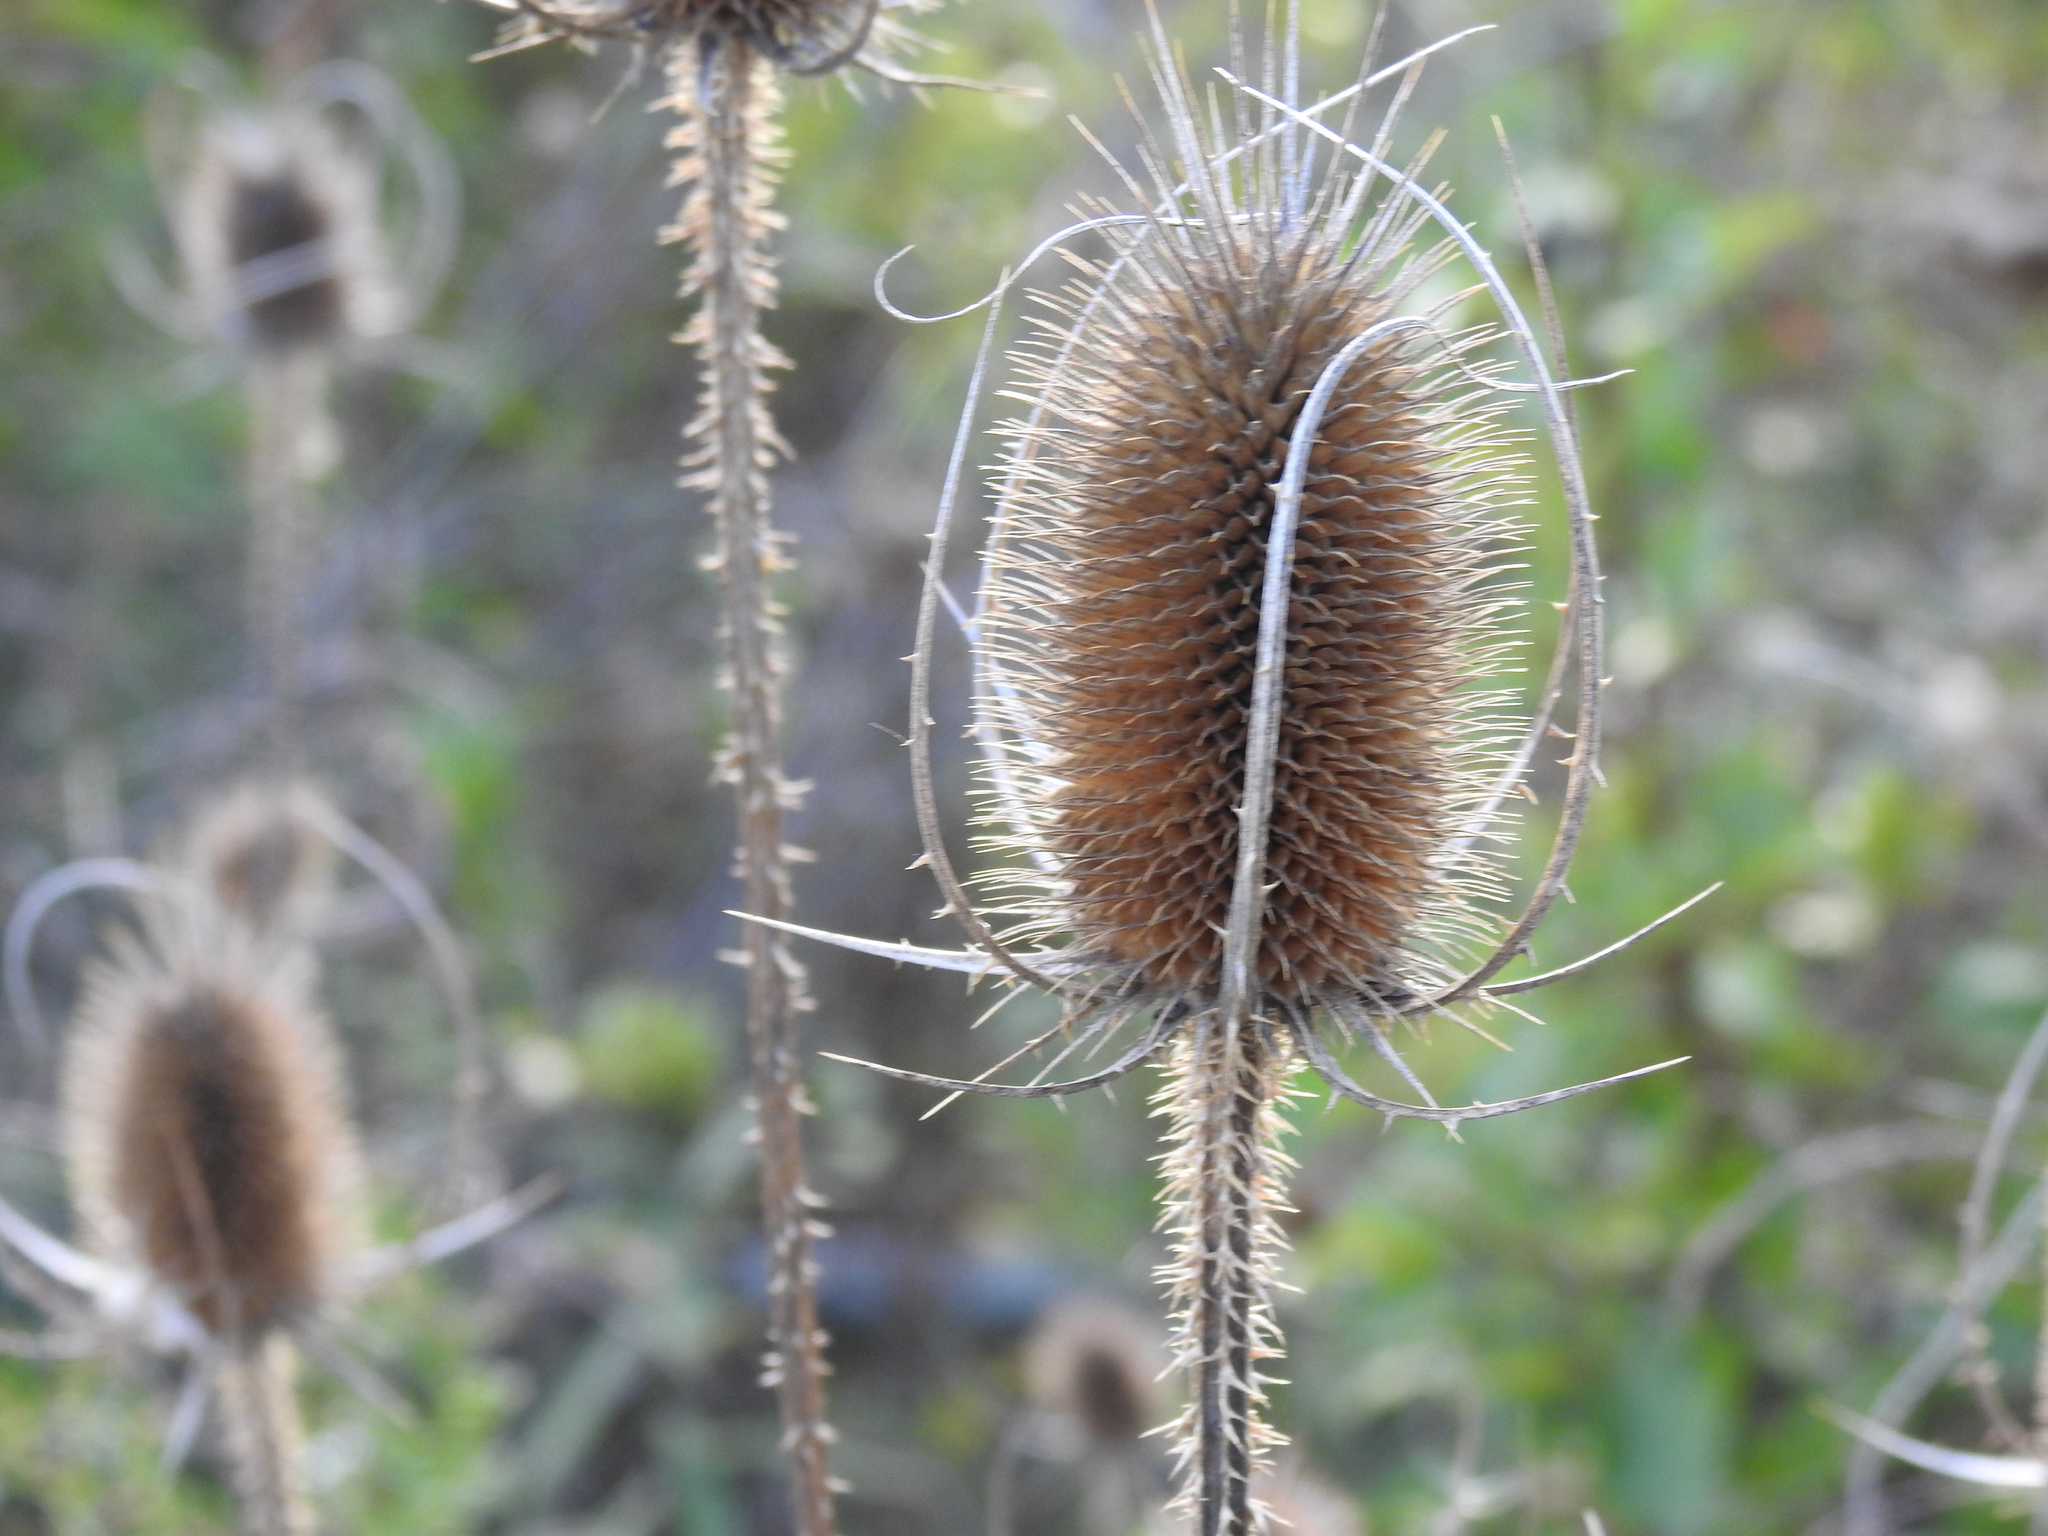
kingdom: Plantae
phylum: Tracheophyta
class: Magnoliopsida
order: Dipsacales
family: Caprifoliaceae
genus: Dipsacus
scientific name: Dipsacus fullonum
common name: Teasel
